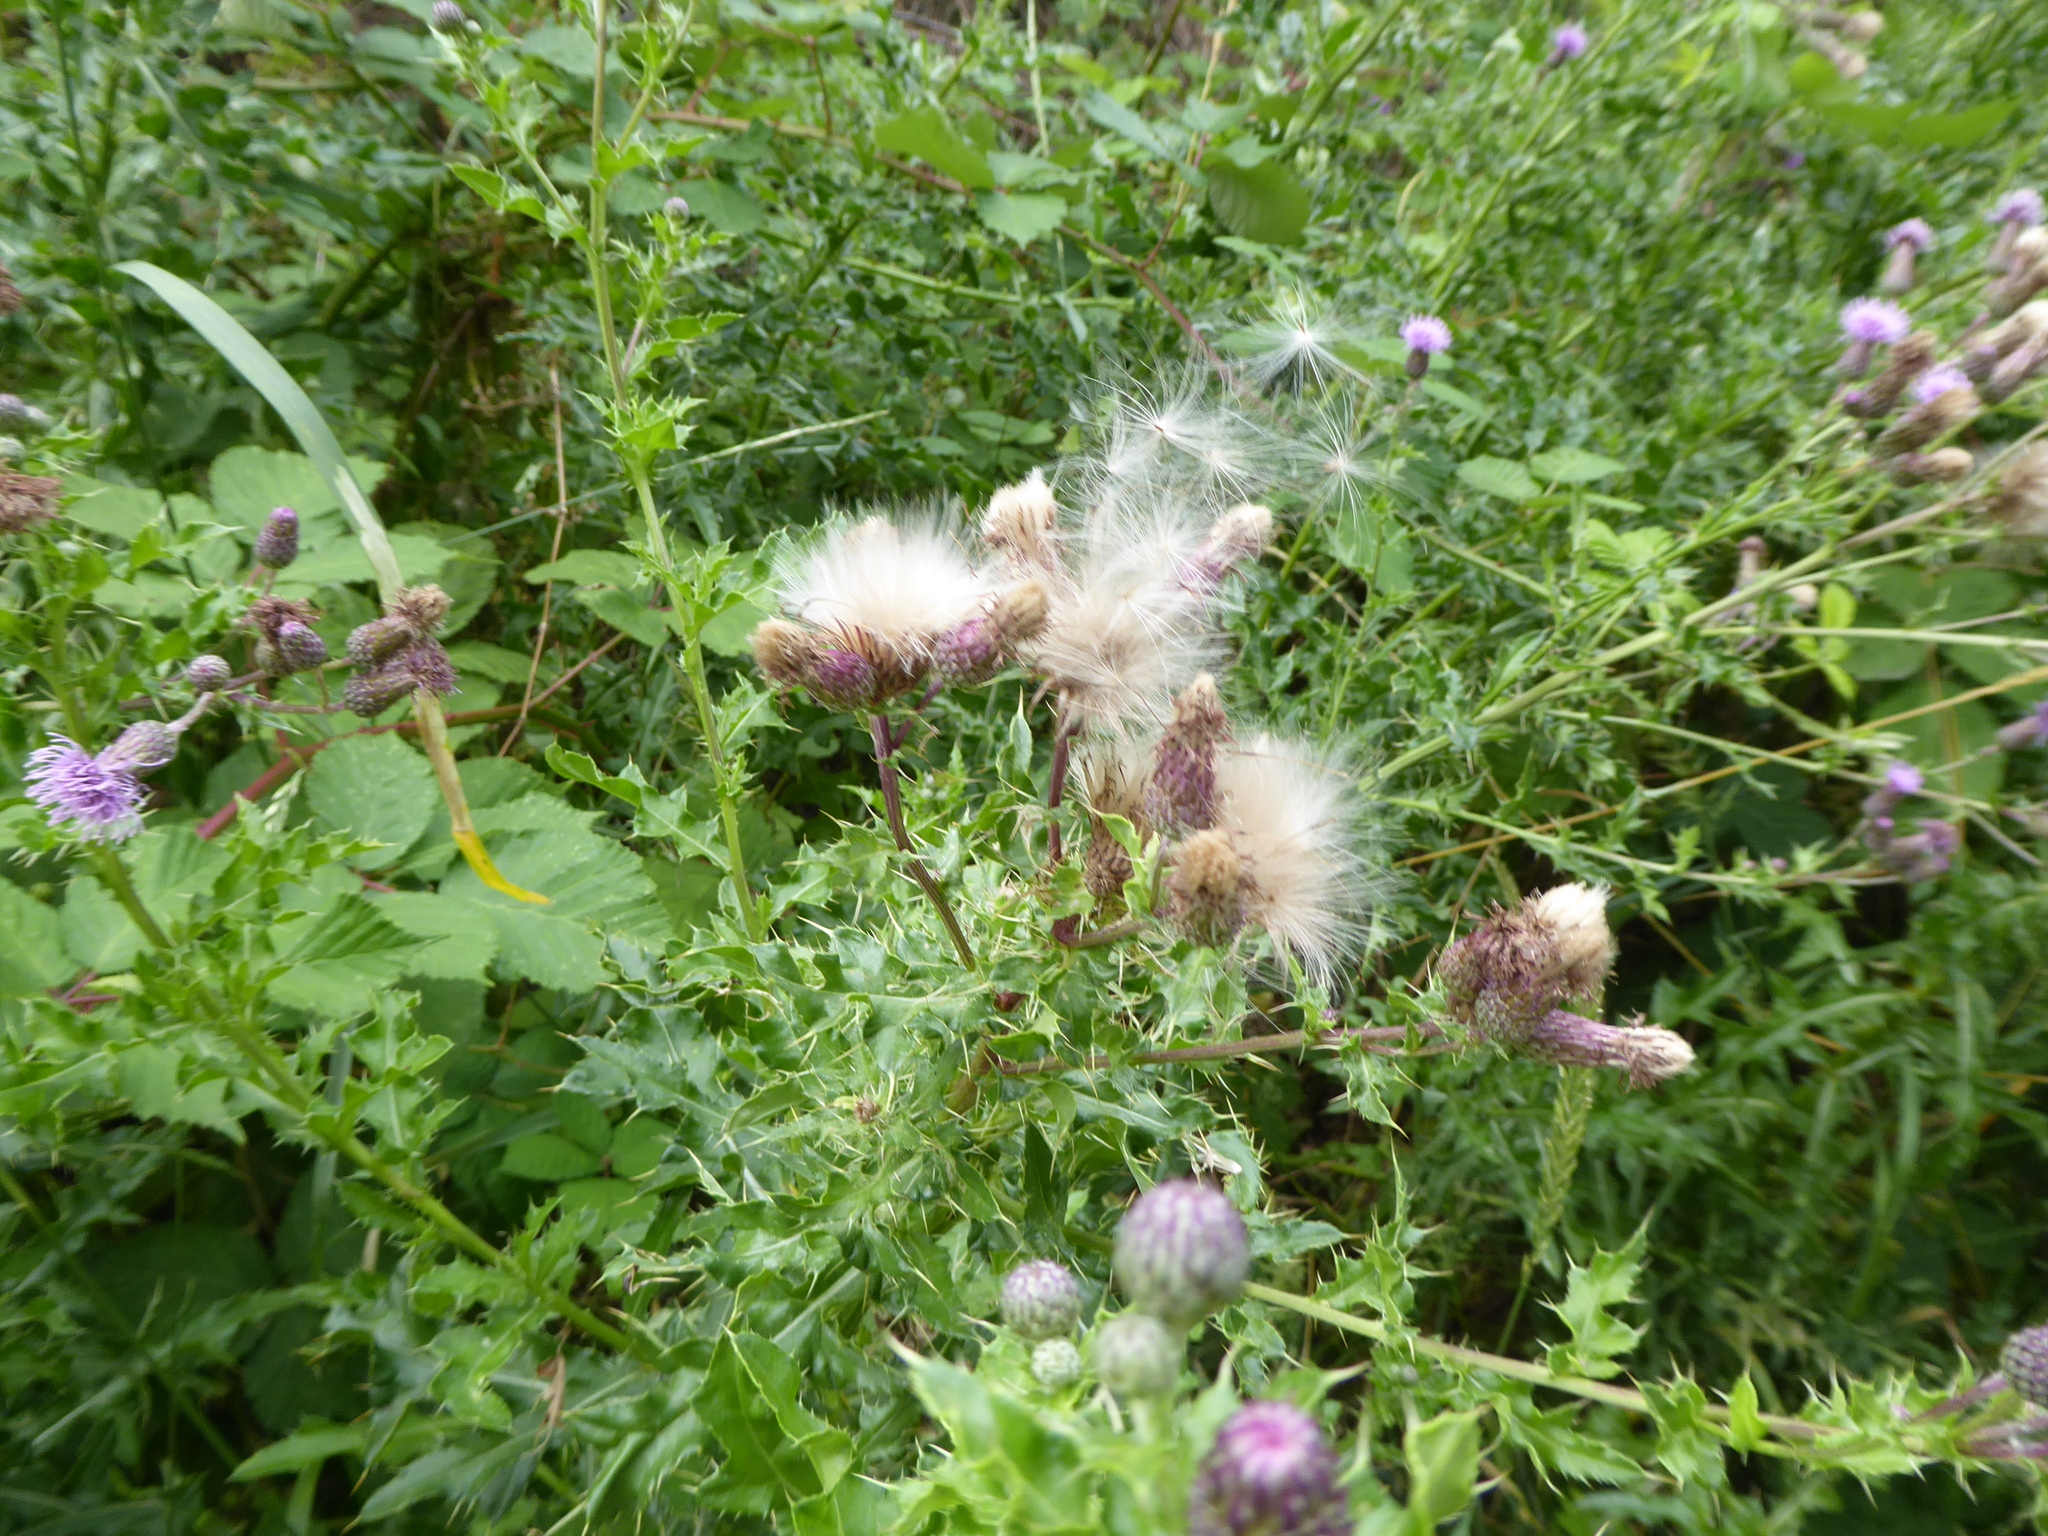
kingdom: Plantae
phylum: Tracheophyta
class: Magnoliopsida
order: Asterales
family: Asteraceae
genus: Cirsium
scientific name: Cirsium arvense
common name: Creeping thistle
